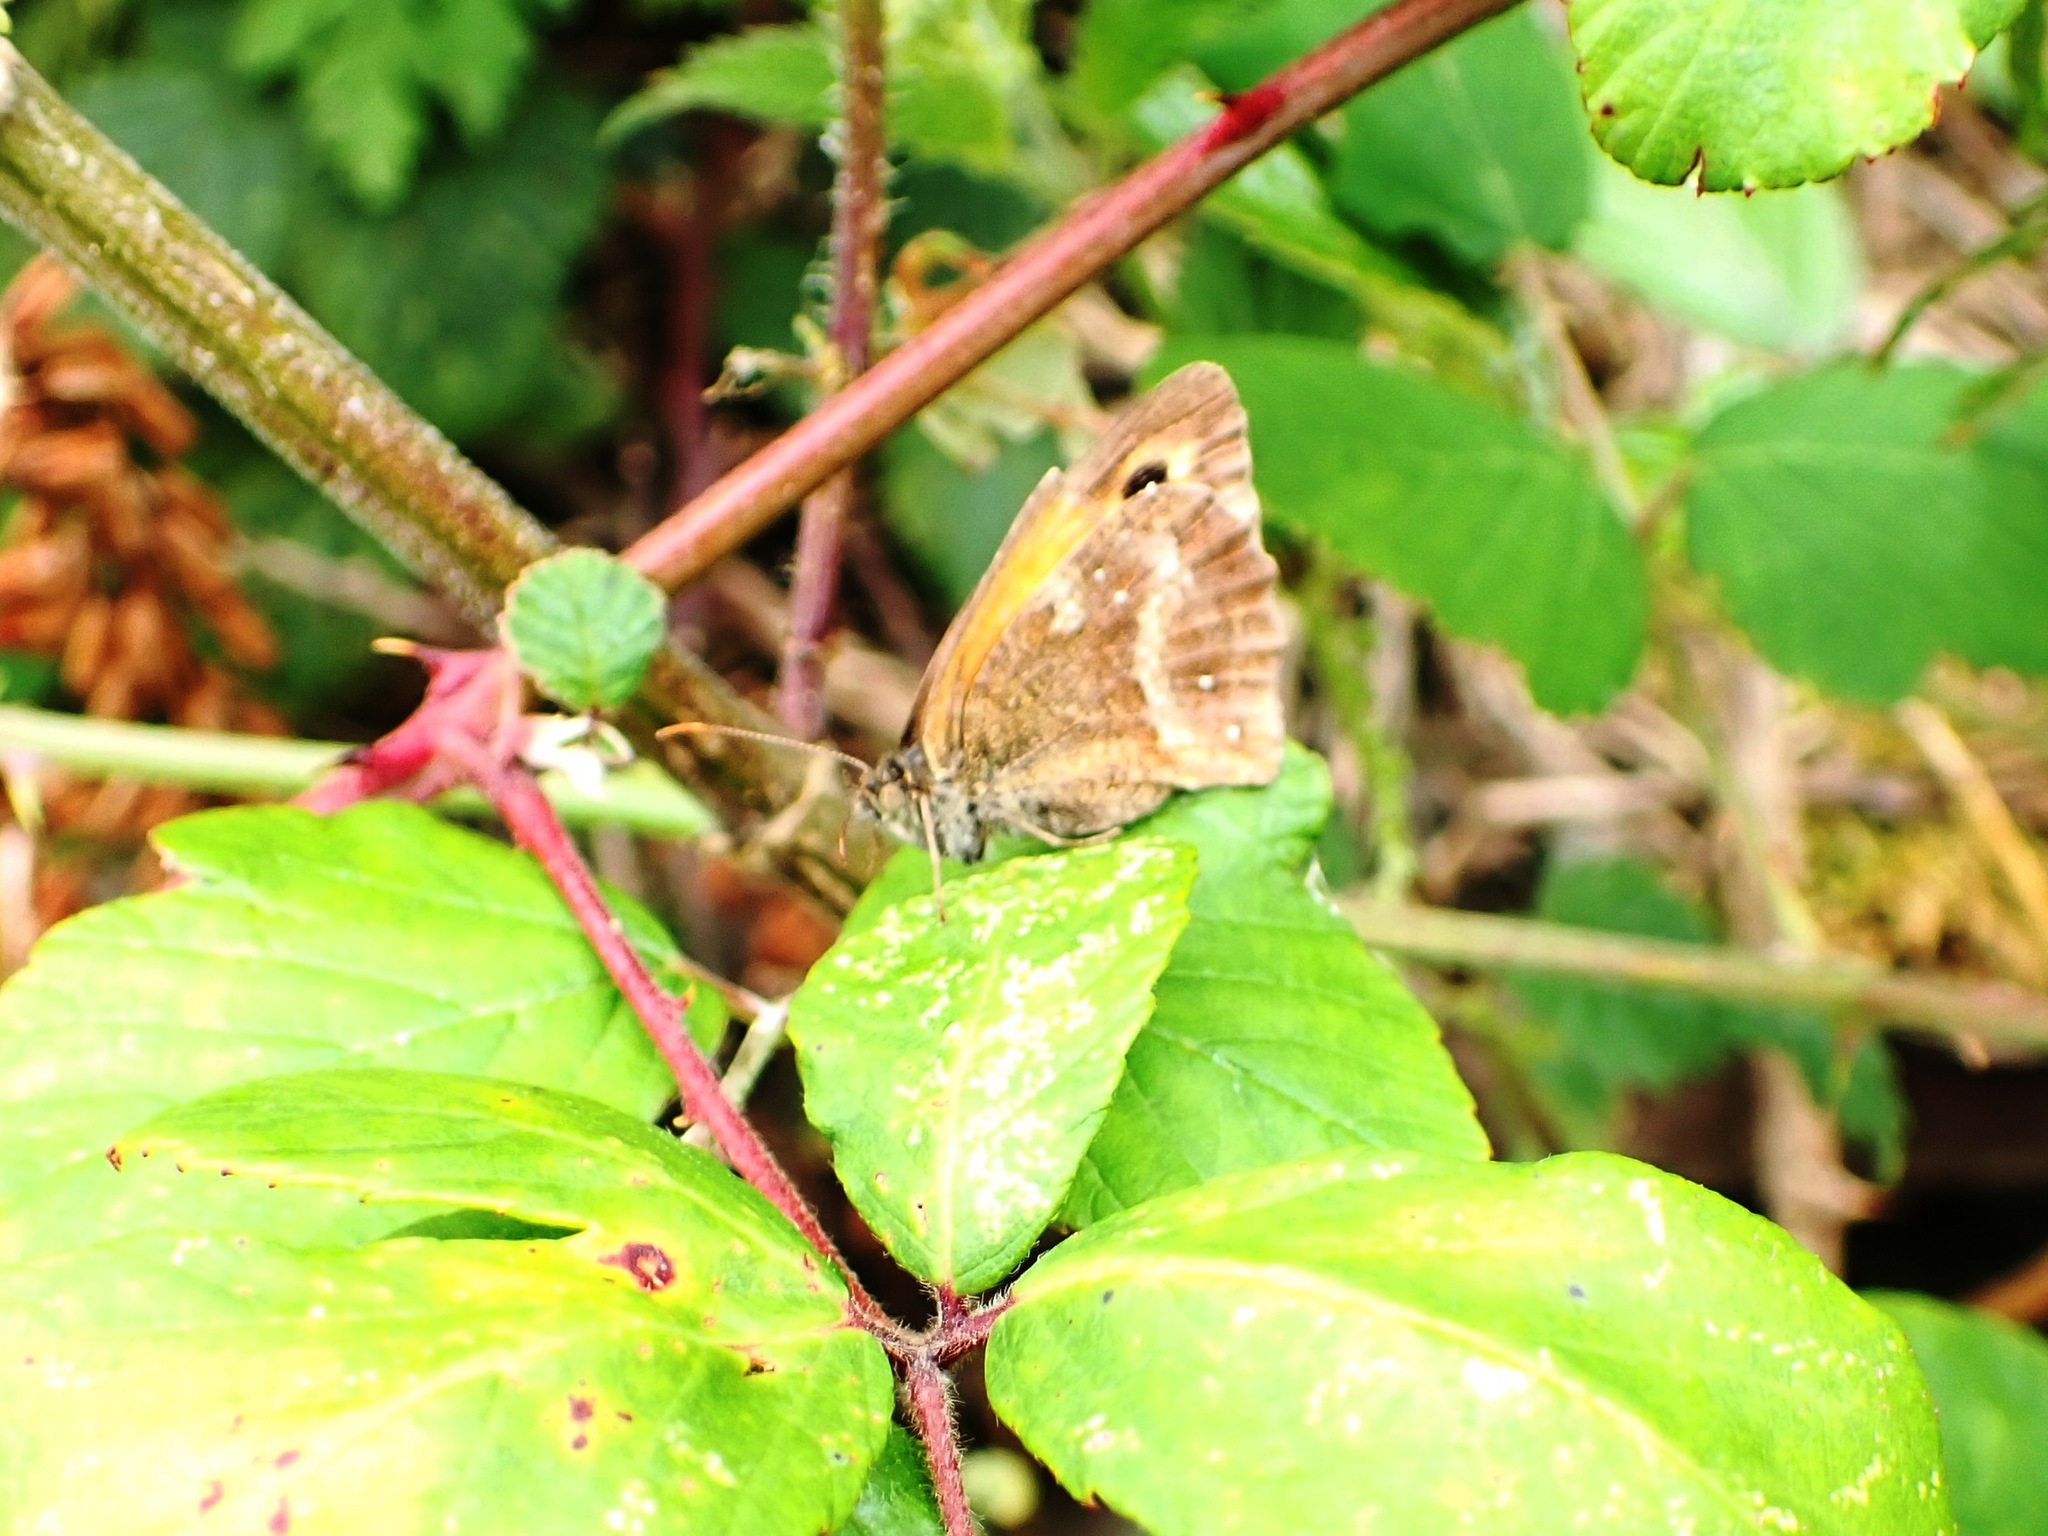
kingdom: Animalia
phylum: Arthropoda
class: Insecta
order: Lepidoptera
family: Nymphalidae
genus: Pyronia
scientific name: Pyronia tithonus
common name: Gatekeeper
